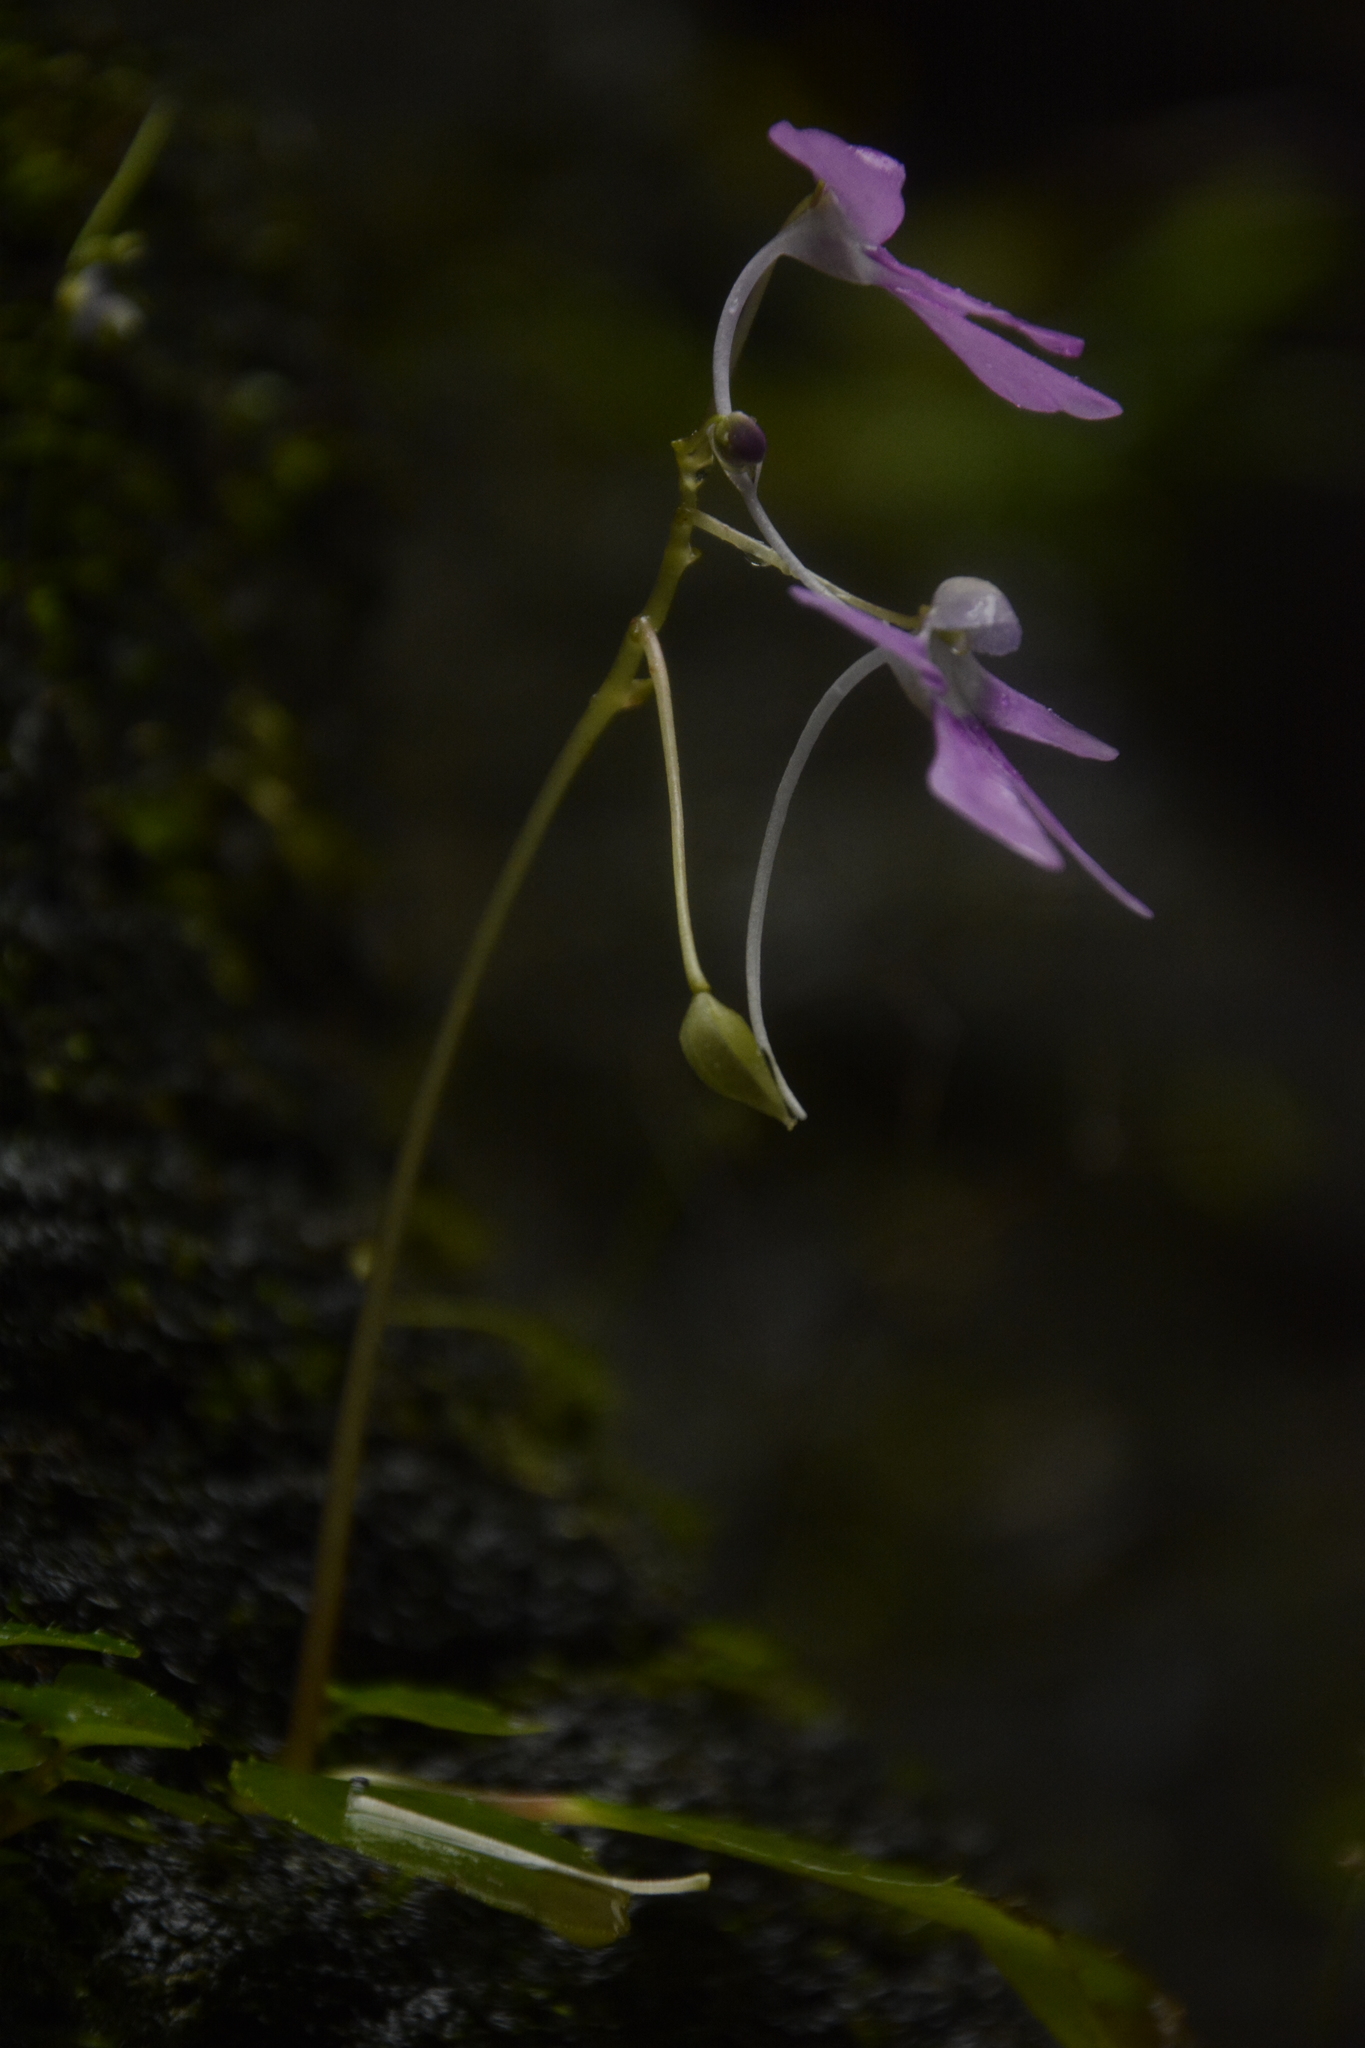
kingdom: Plantae
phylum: Tracheophyta
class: Magnoliopsida
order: Ericales
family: Balsaminaceae
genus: Impatiens
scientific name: Impatiens acaulis
